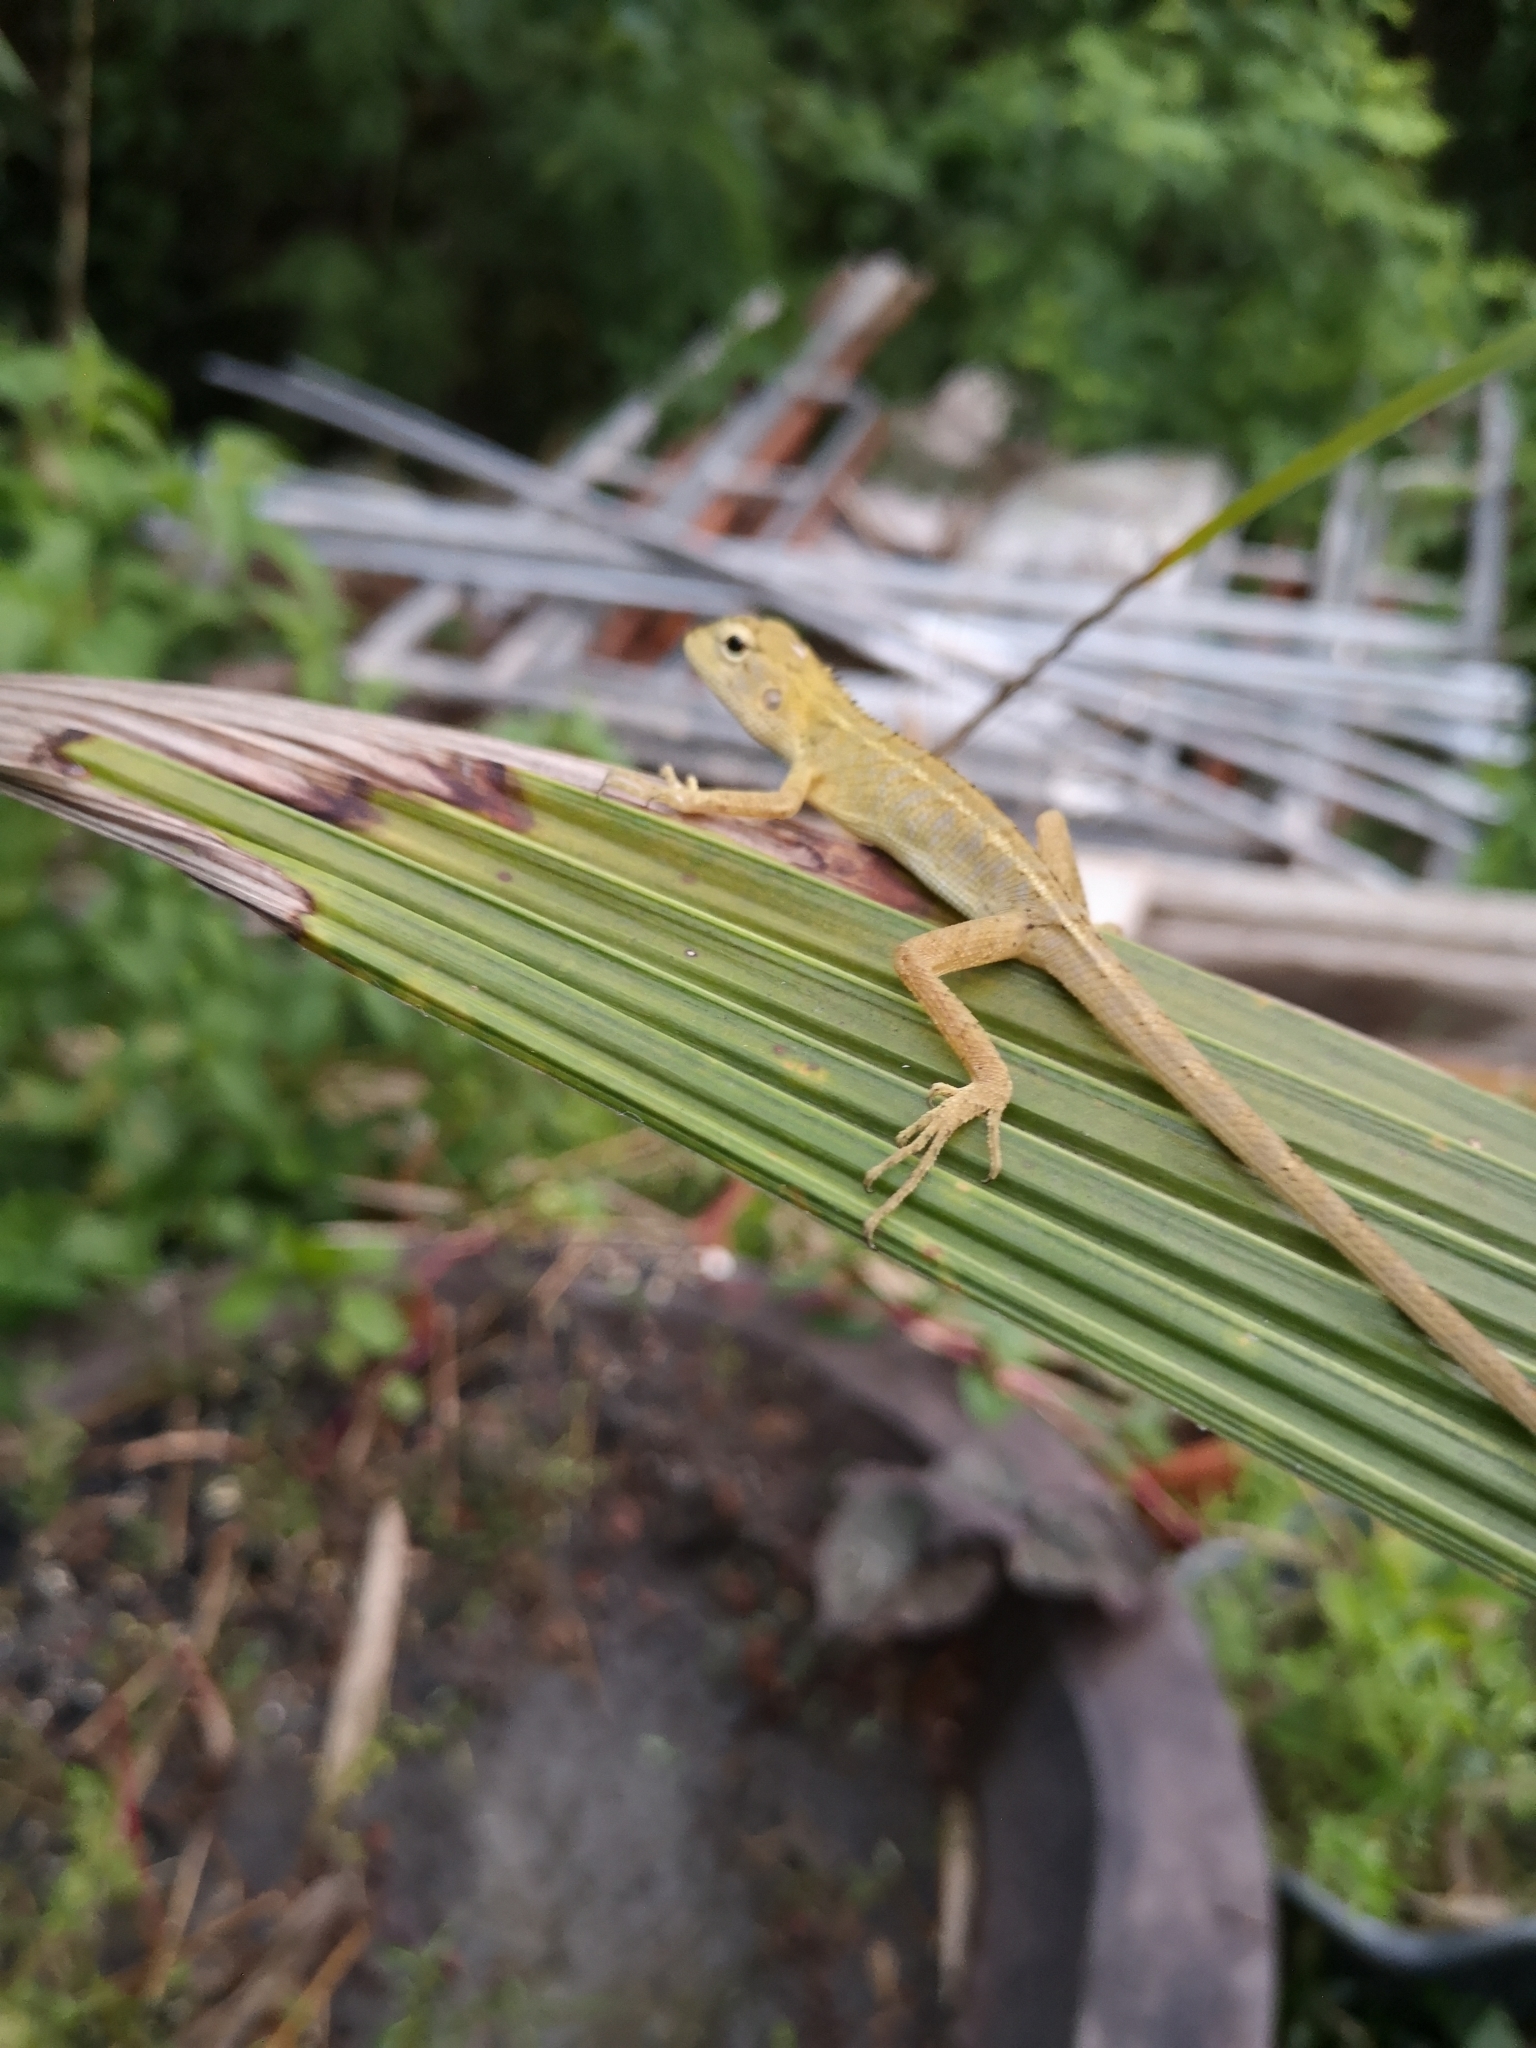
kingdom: Animalia
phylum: Chordata
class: Squamata
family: Agamidae
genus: Calotes
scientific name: Calotes versicolor
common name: Oriental garden lizard
